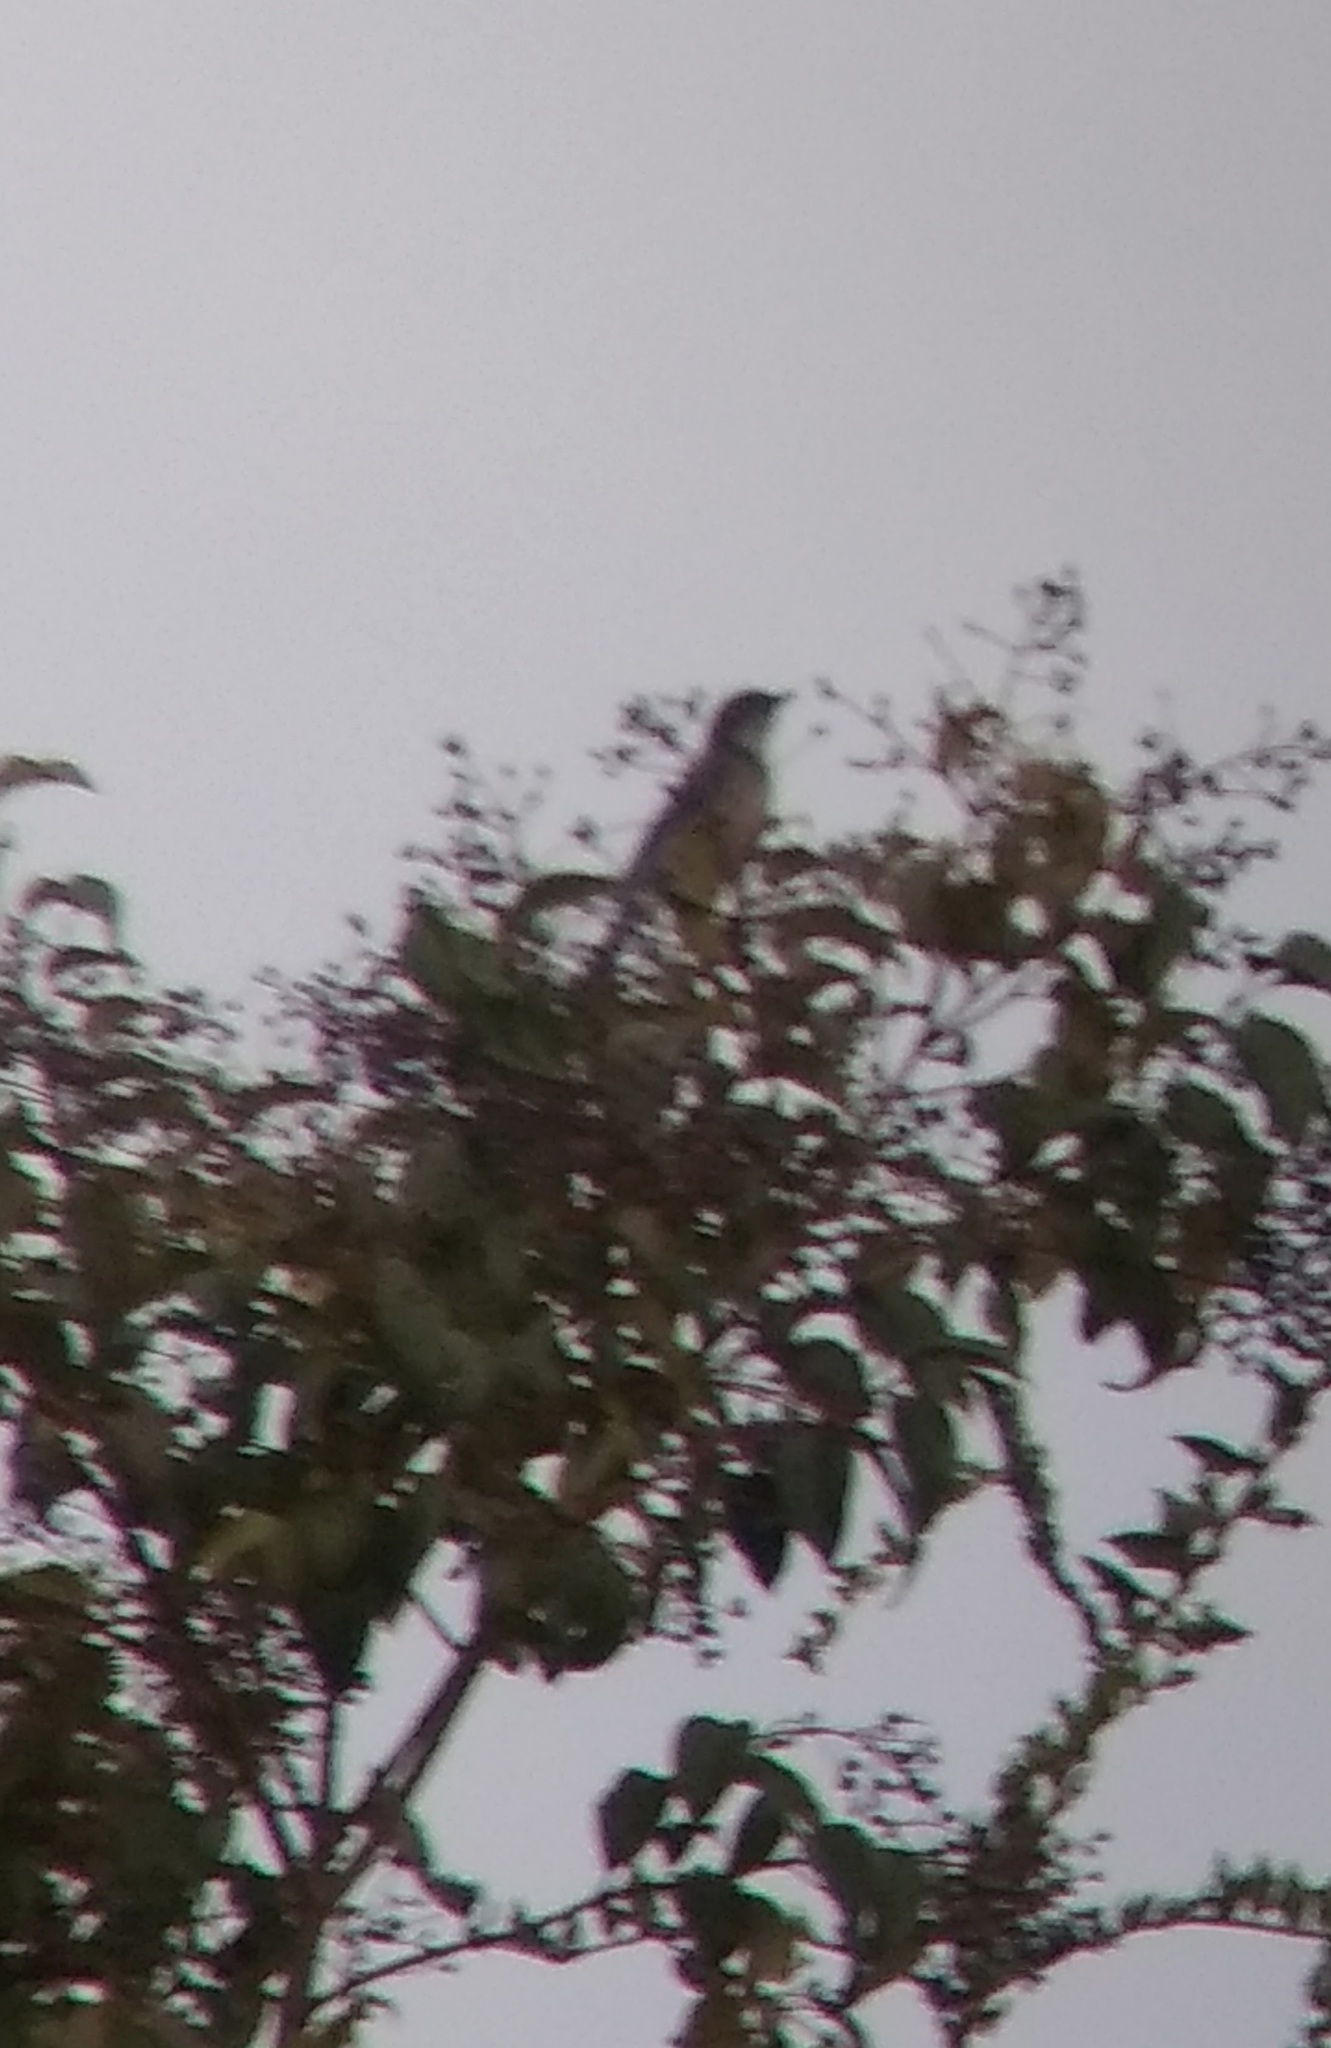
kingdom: Animalia
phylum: Chordata
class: Aves
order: Passeriformes
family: Corvidae
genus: Aphelocoma
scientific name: Aphelocoma californica
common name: California scrub-jay
